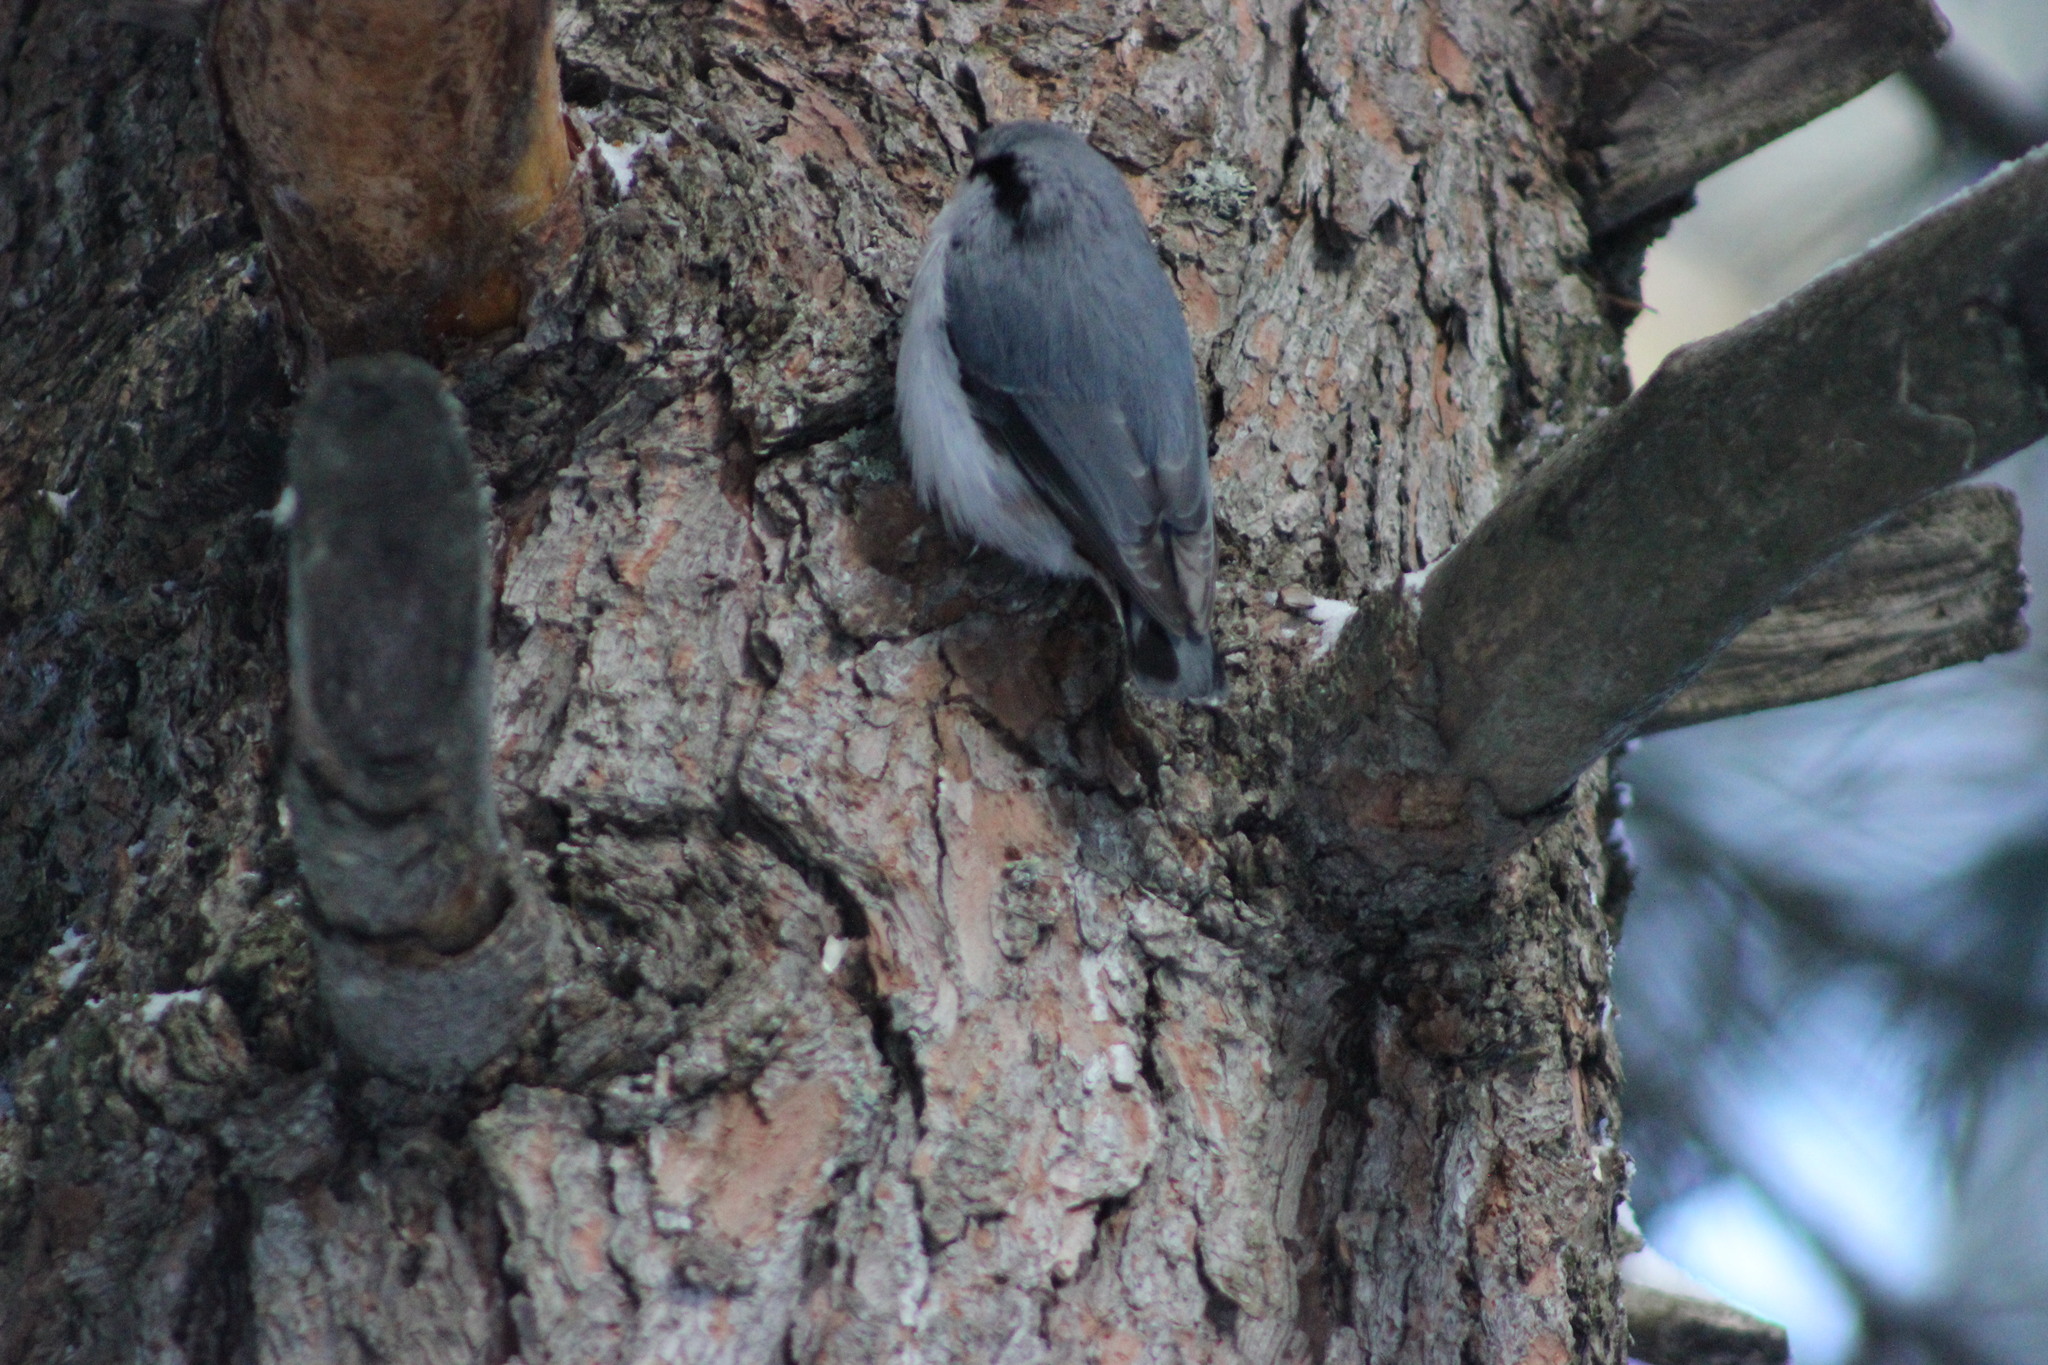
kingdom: Animalia
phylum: Chordata
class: Aves
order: Passeriformes
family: Sittidae
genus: Sitta
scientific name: Sitta europaea
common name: Eurasian nuthatch
